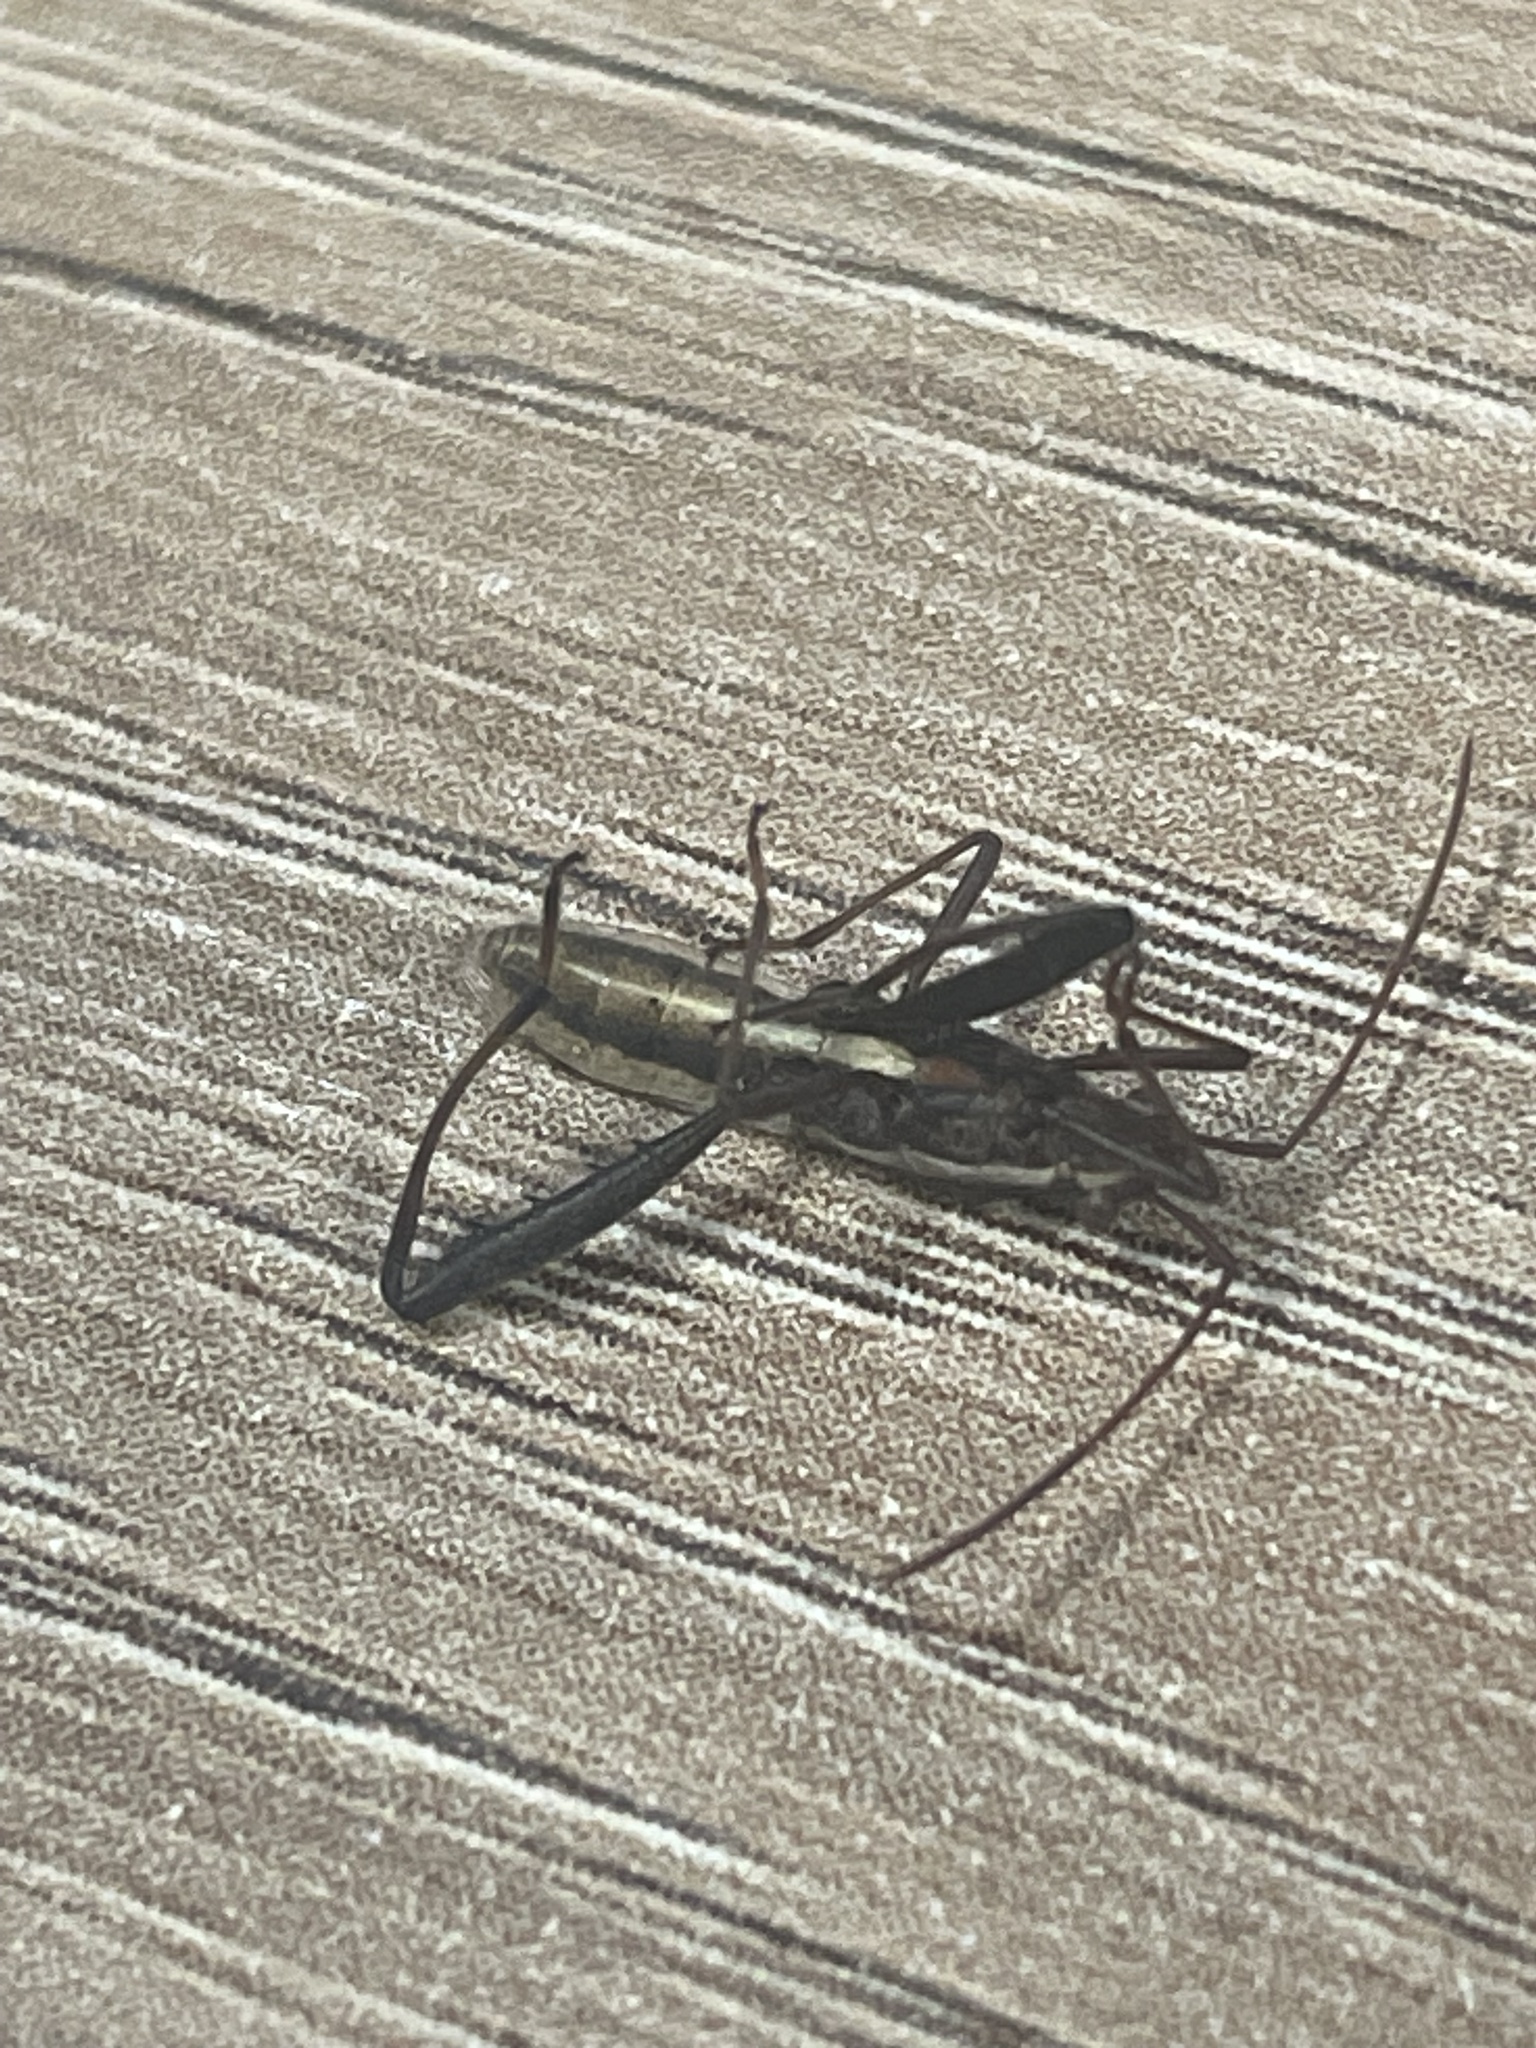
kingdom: Animalia
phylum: Arthropoda
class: Insecta
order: Hemiptera
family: Alydidae
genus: Melanacanthus
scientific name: Melanacanthus scutellaris
